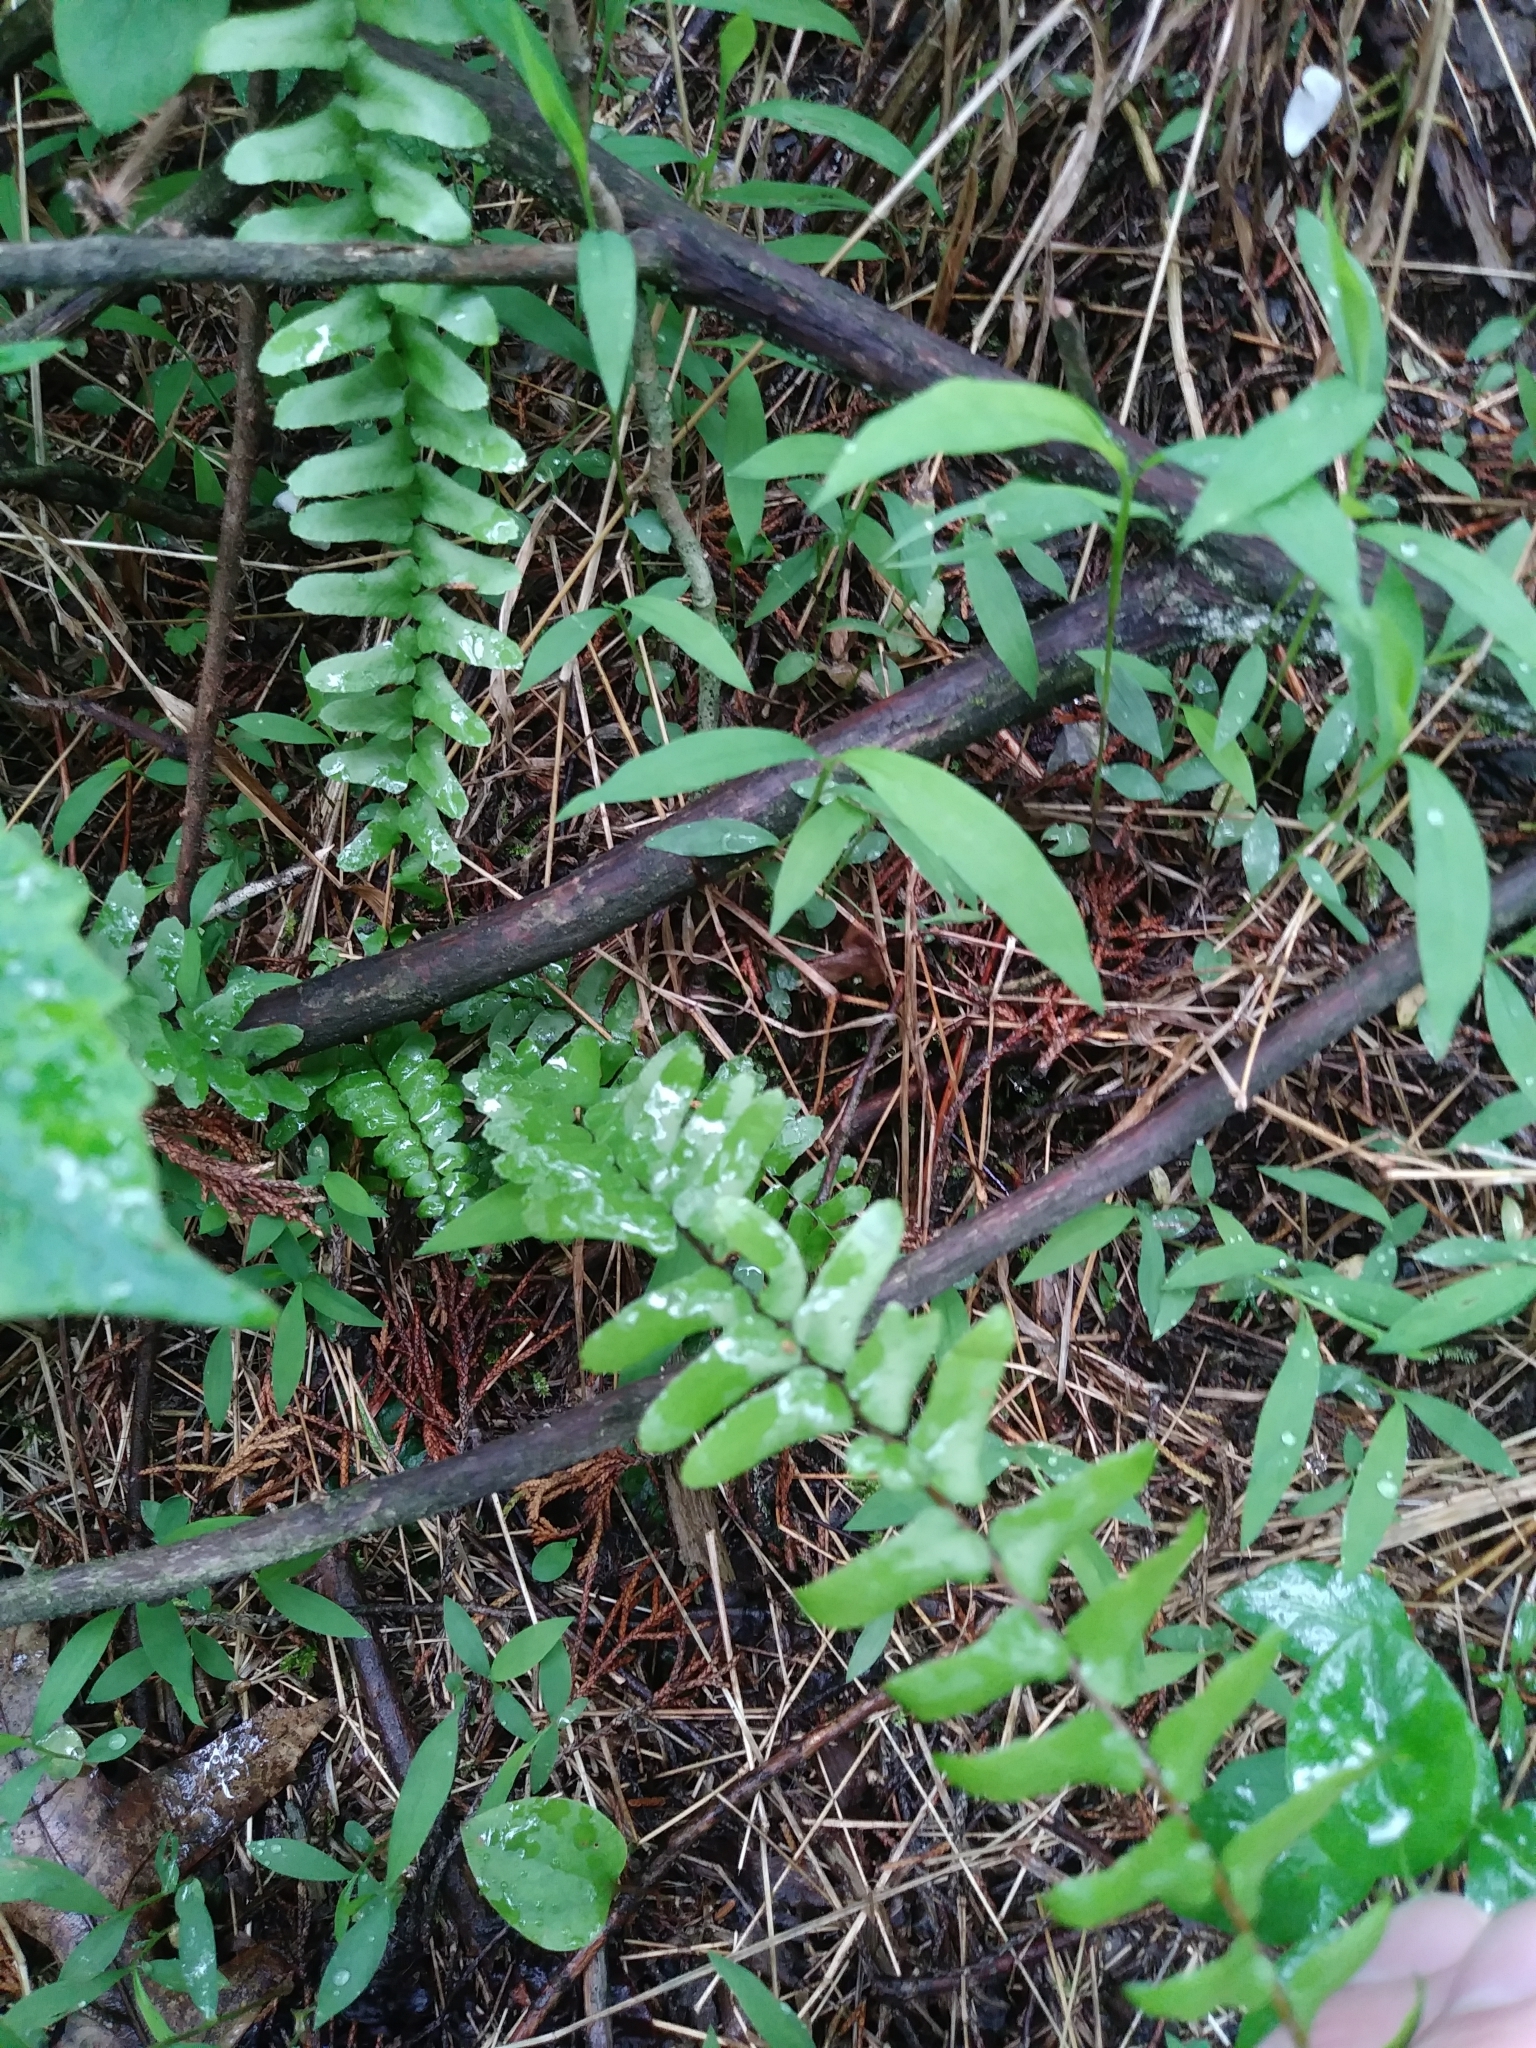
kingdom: Plantae
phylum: Tracheophyta
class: Polypodiopsida
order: Polypodiales
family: Aspleniaceae
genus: Asplenium
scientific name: Asplenium platyneuron
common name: Ebony spleenwort
